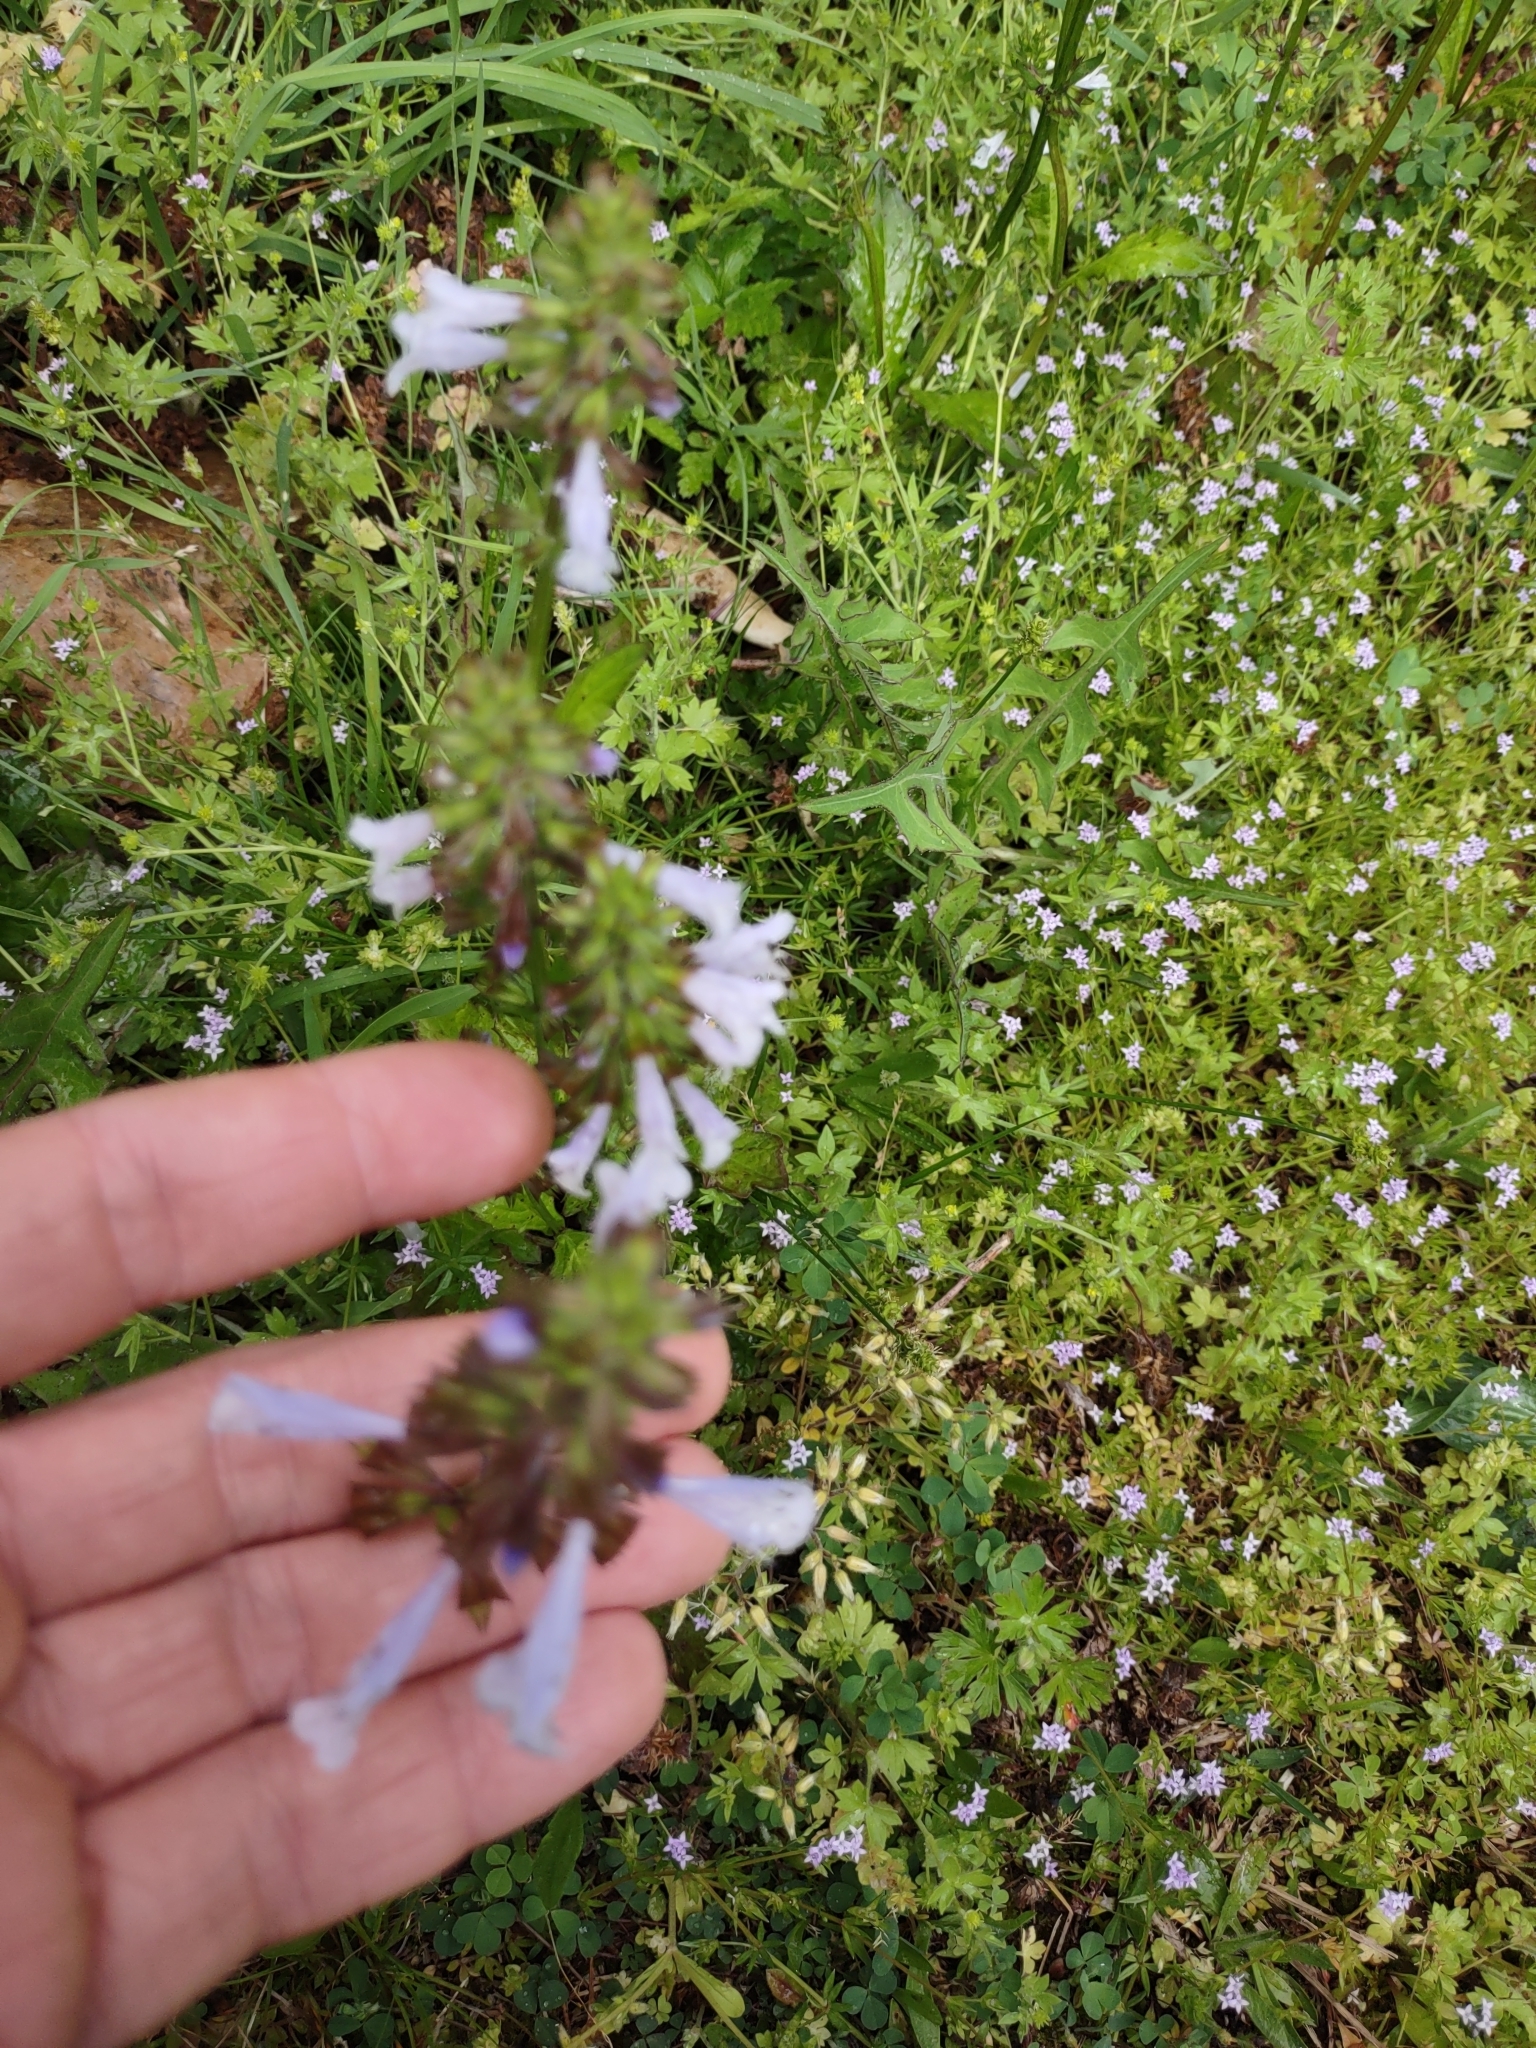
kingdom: Plantae
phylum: Tracheophyta
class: Magnoliopsida
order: Lamiales
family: Lamiaceae
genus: Salvia
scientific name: Salvia lyrata
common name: Cancerweed
